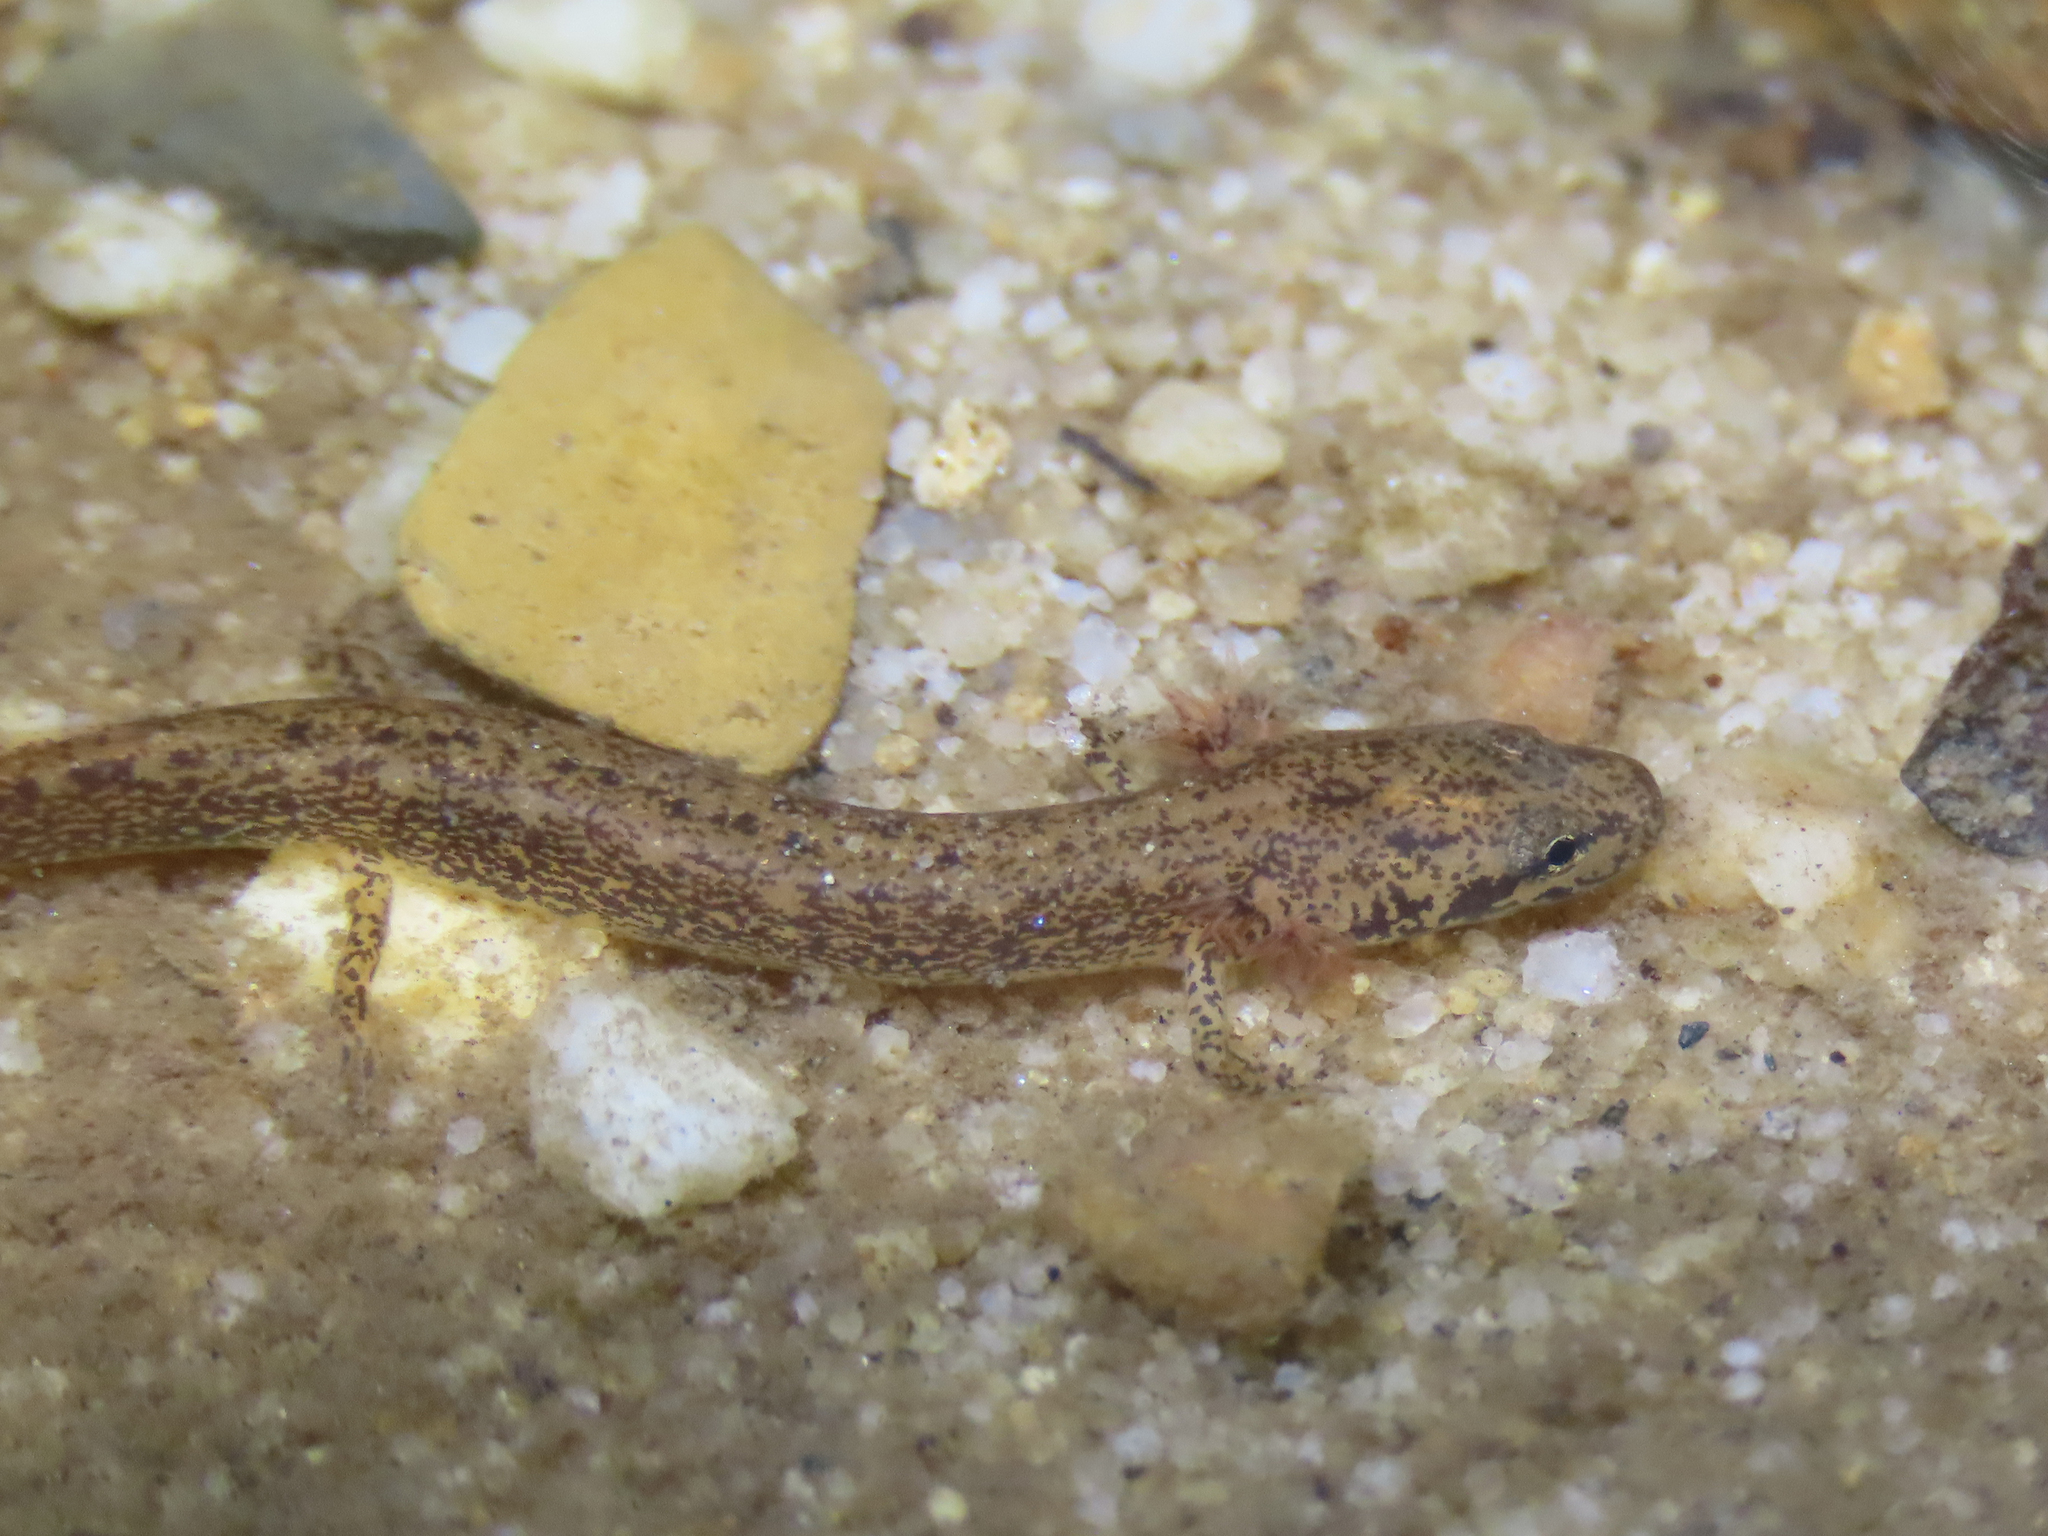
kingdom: Animalia
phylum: Chordata
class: Amphibia
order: Caudata
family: Plethodontidae
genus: Eurycea
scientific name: Eurycea bislineata
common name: Northern two-lined salamander
